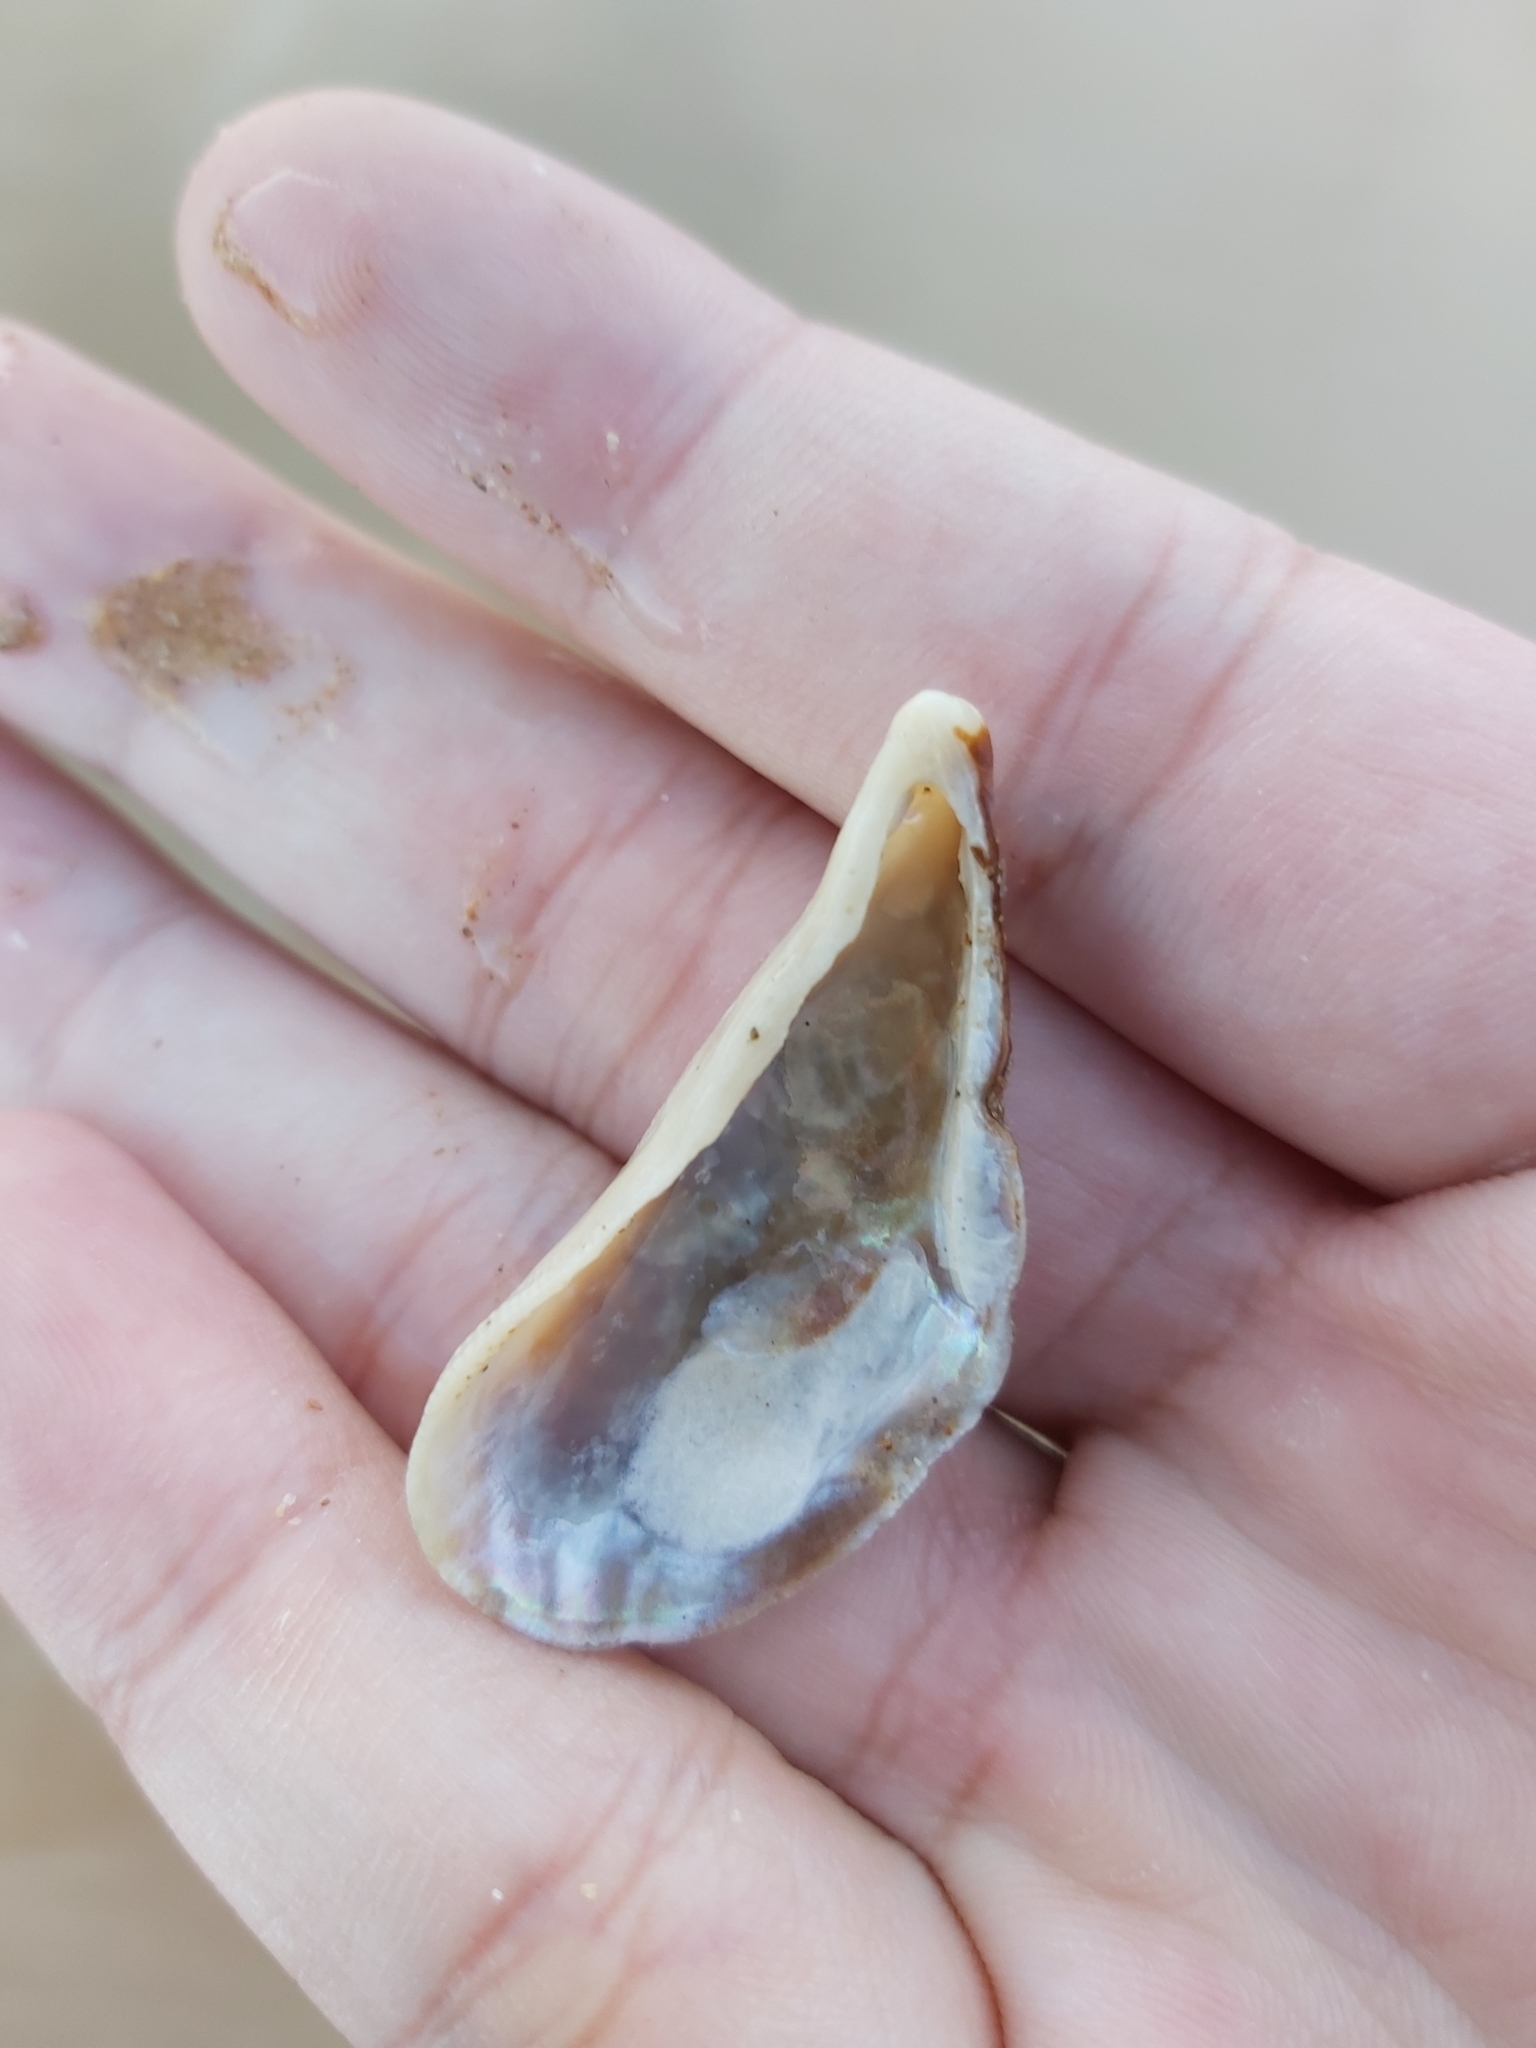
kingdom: Animalia
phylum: Mollusca
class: Bivalvia
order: Mytilida
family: Mytilidae
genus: Trichomya
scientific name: Trichomya hirsuta
